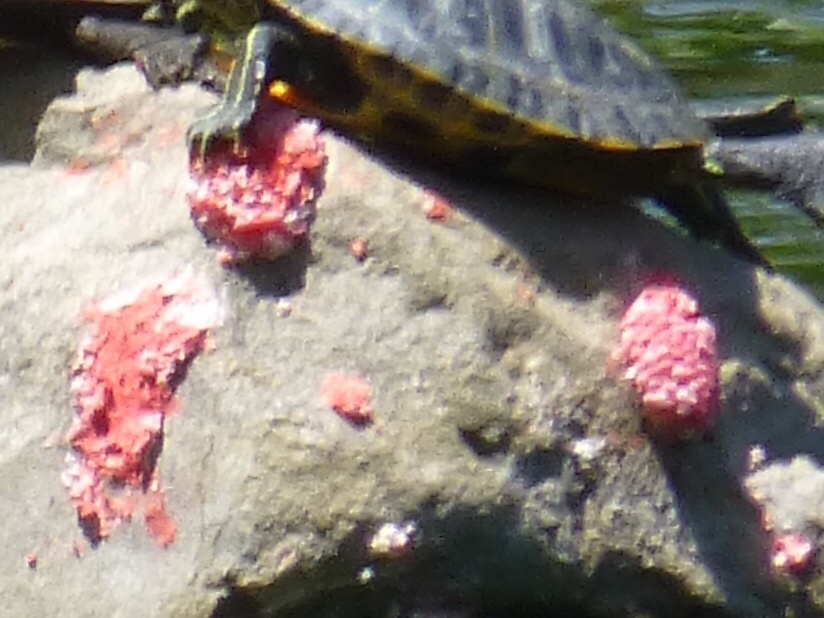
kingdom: Animalia
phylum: Mollusca
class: Gastropoda
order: Architaenioglossa
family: Ampullariidae
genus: Pomacea
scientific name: Pomacea canaliculata
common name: Channeled applesnail
